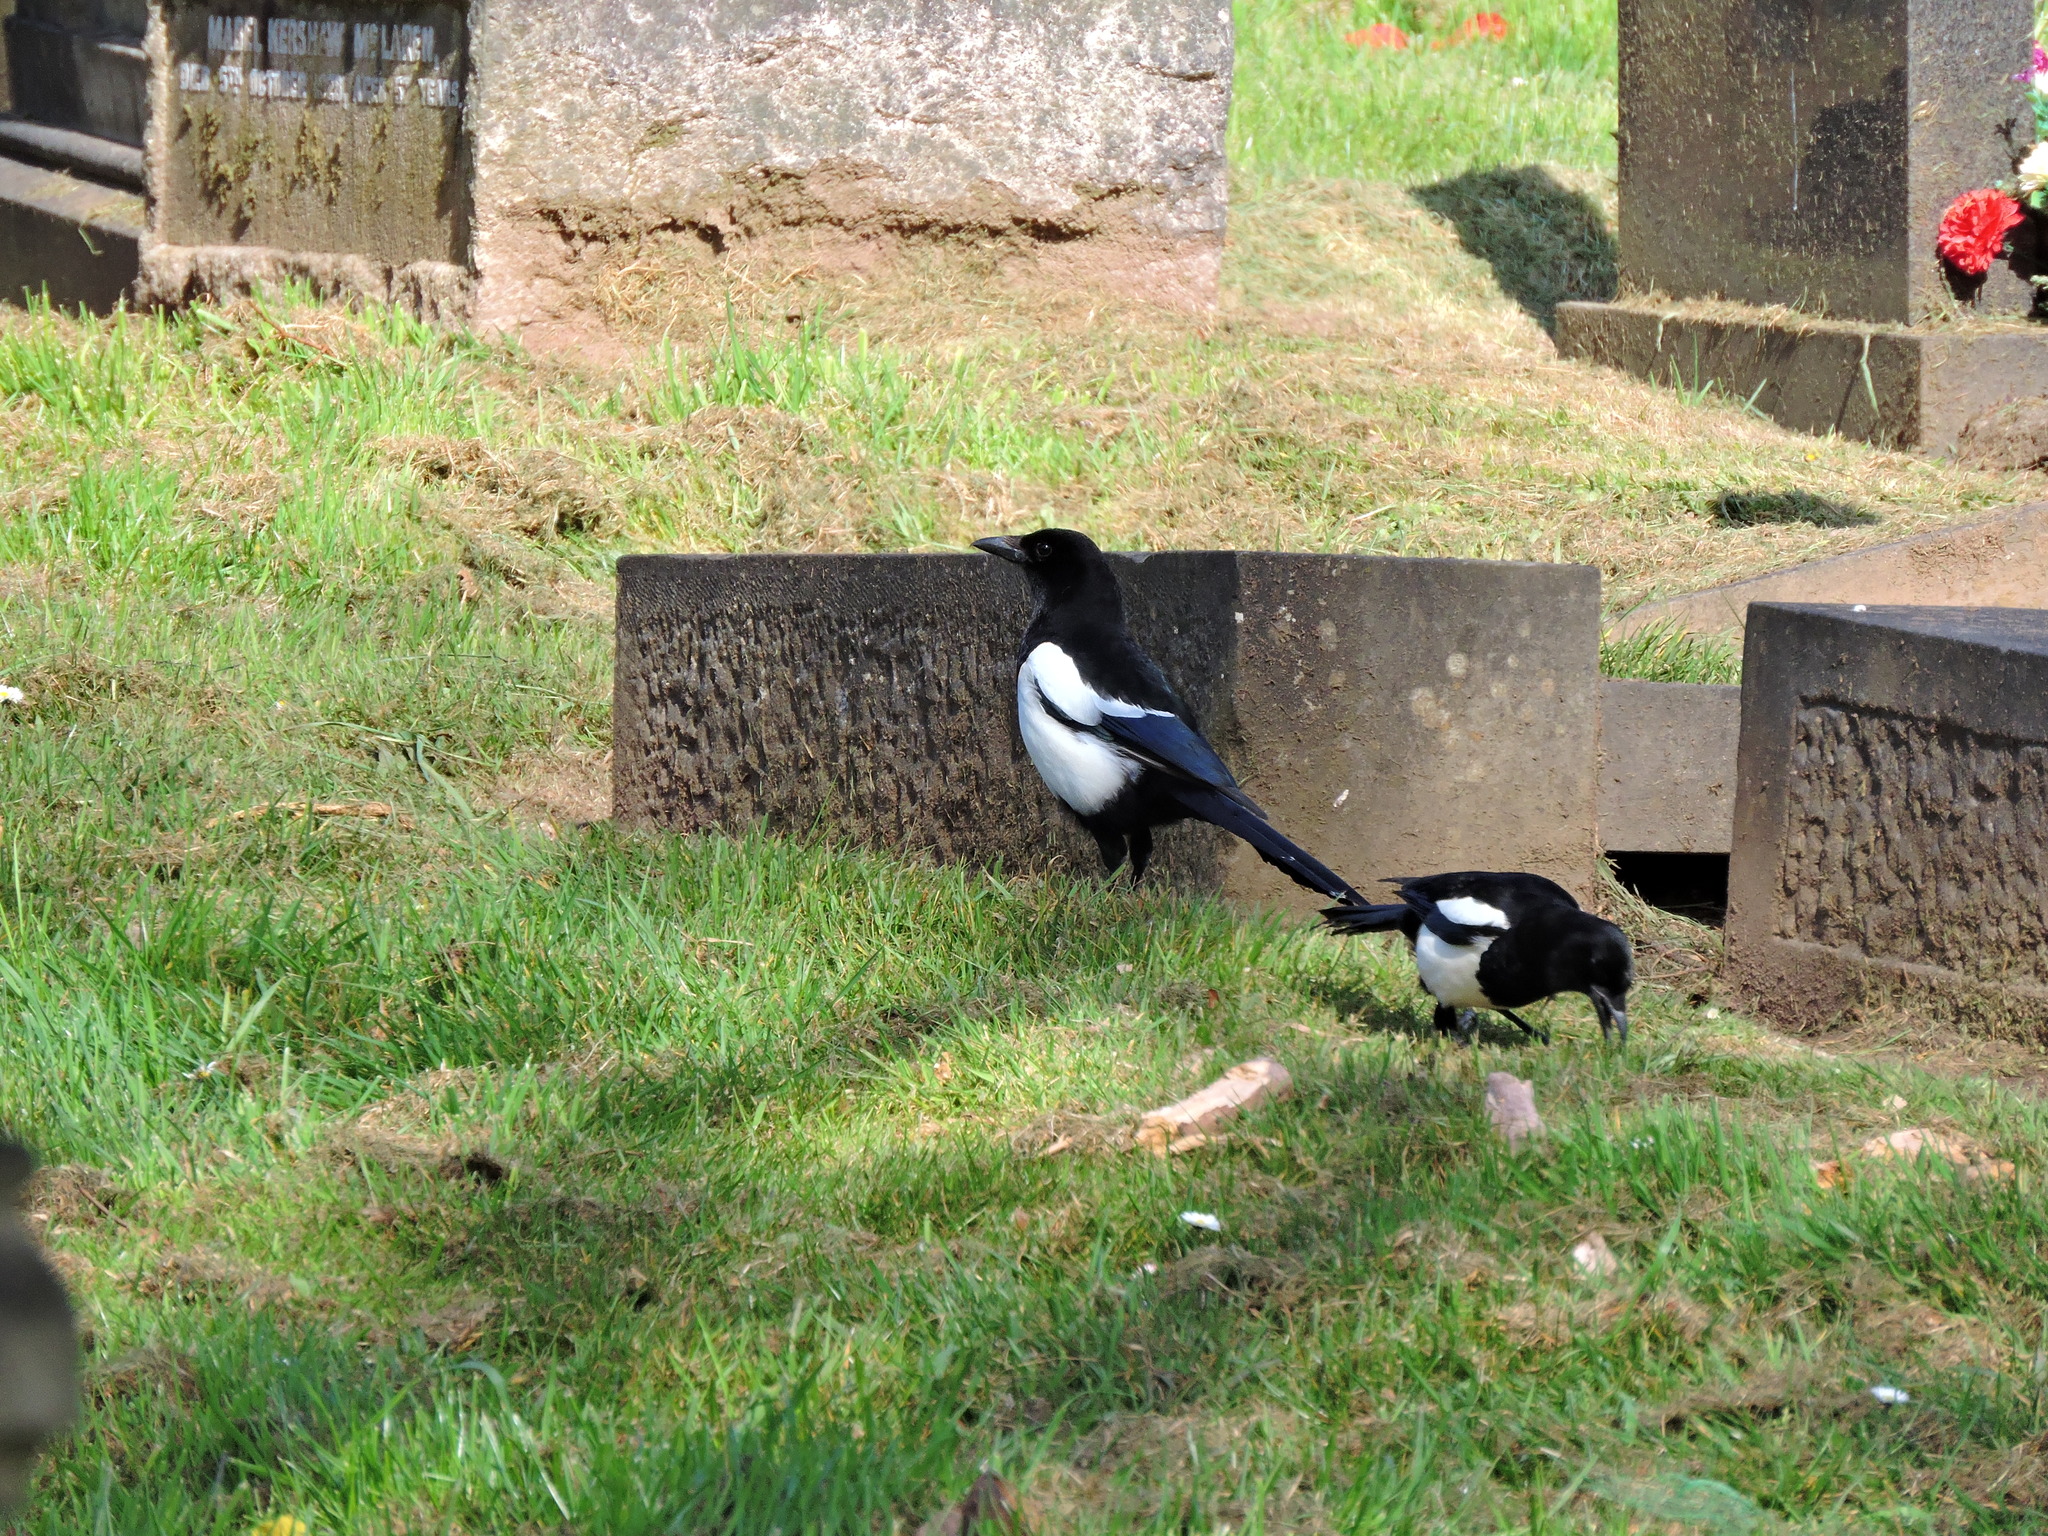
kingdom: Animalia
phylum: Chordata
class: Aves
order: Passeriformes
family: Corvidae
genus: Pica
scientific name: Pica pica
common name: Eurasian magpie
